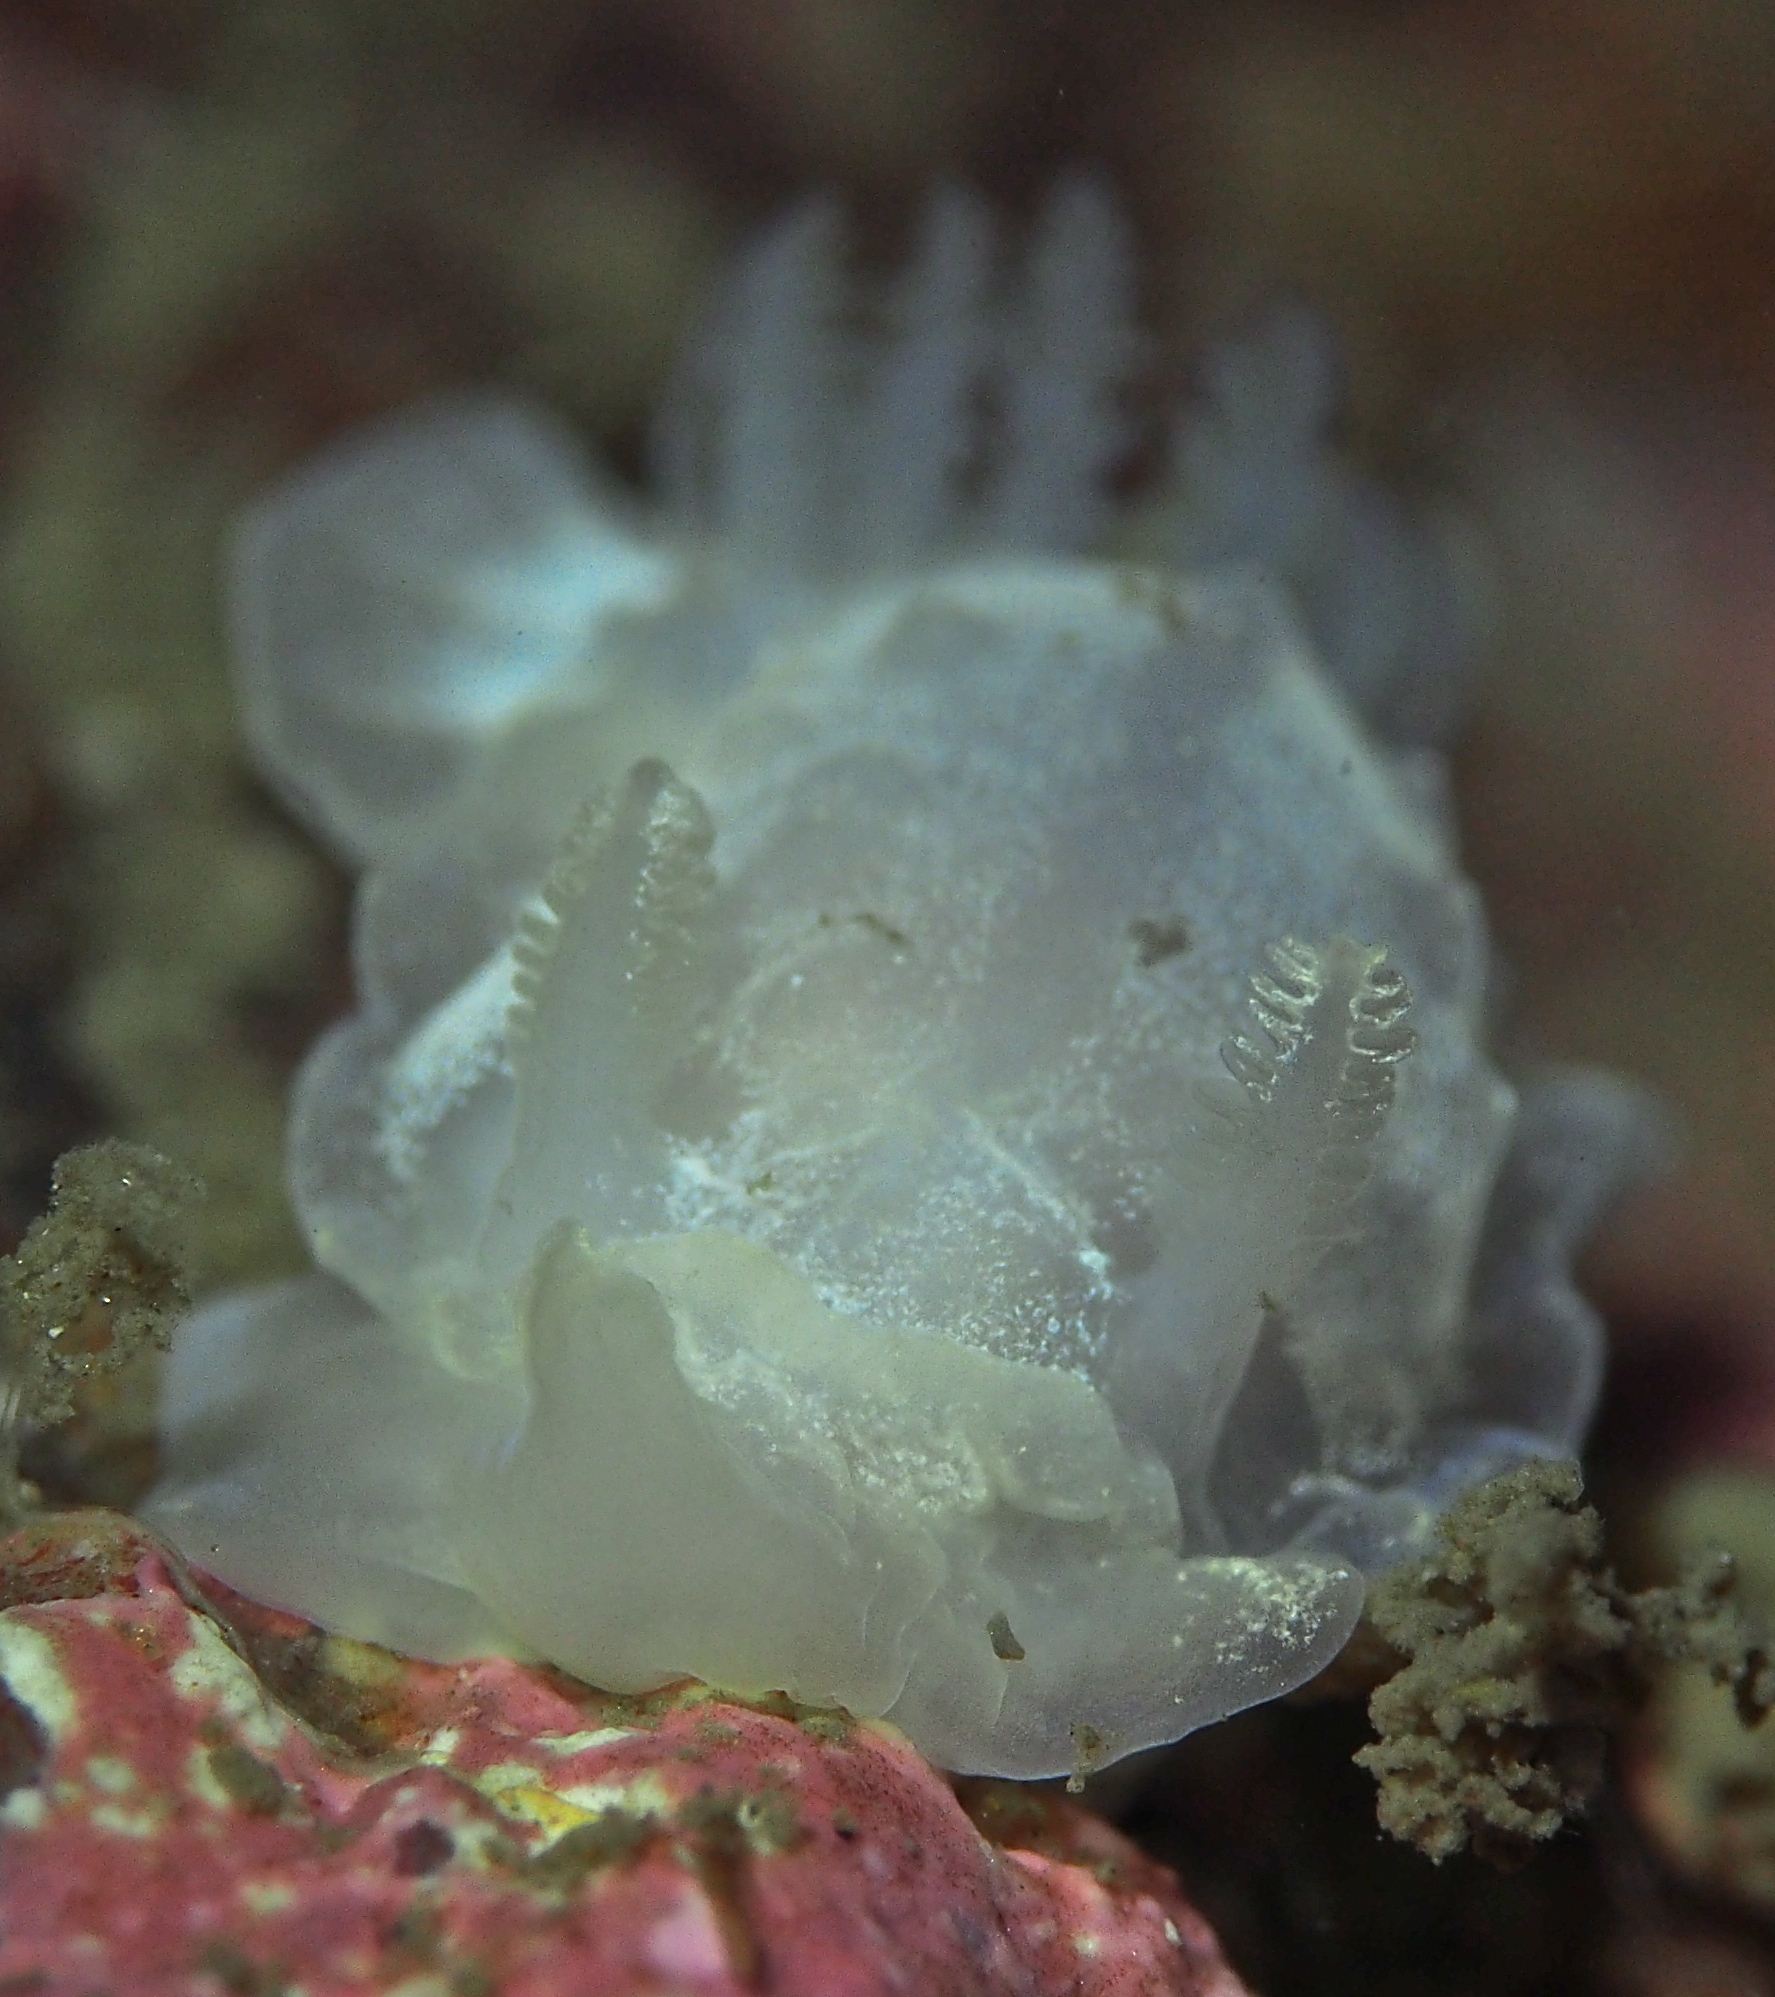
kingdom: Animalia
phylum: Mollusca
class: Gastropoda
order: Nudibranchia
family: Goniodorididae
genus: Okenia
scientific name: Okenia
